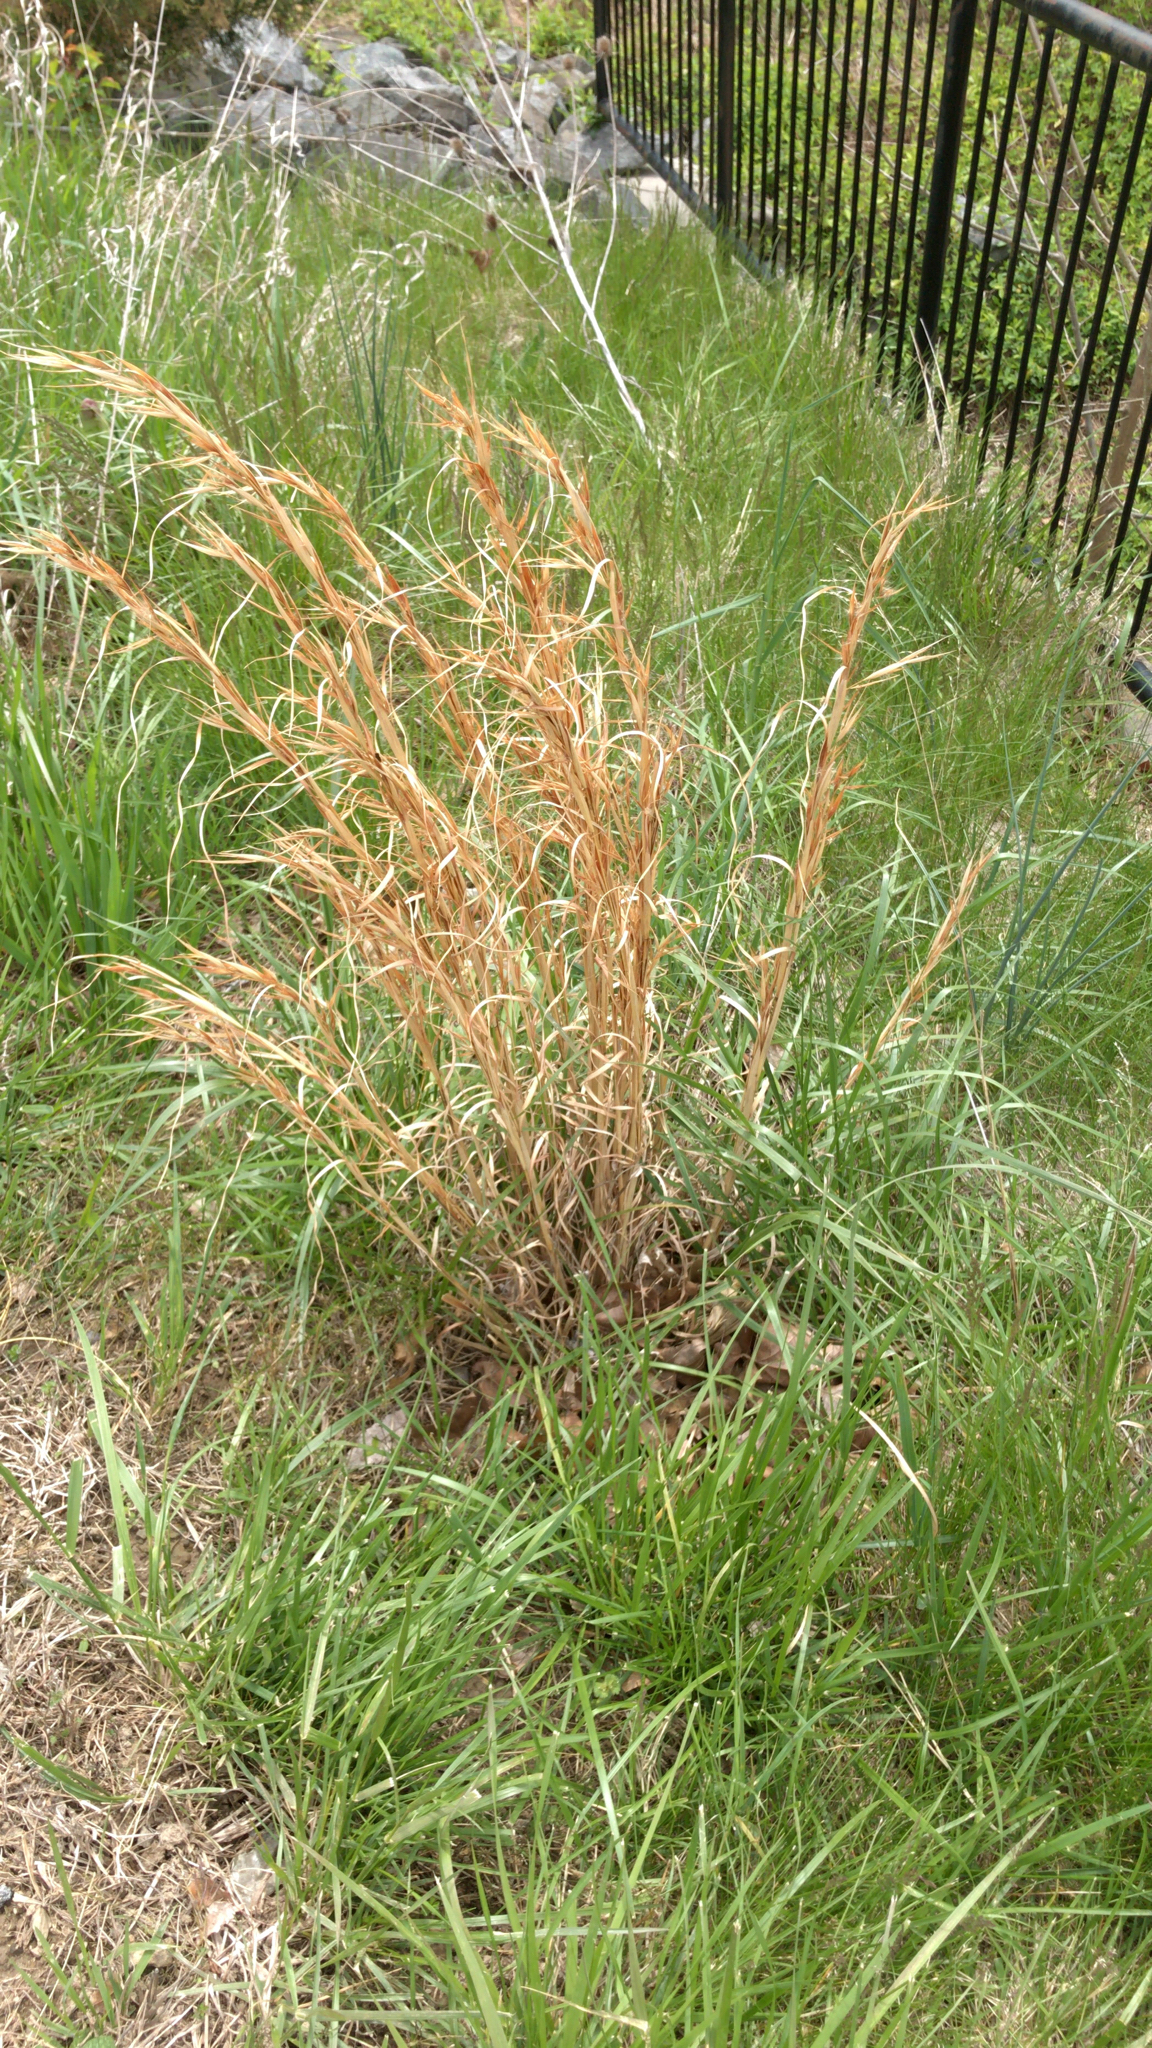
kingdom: Plantae
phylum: Tracheophyta
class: Liliopsida
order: Poales
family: Poaceae
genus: Andropogon
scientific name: Andropogon virginicus
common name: Broomsedge bluestem
